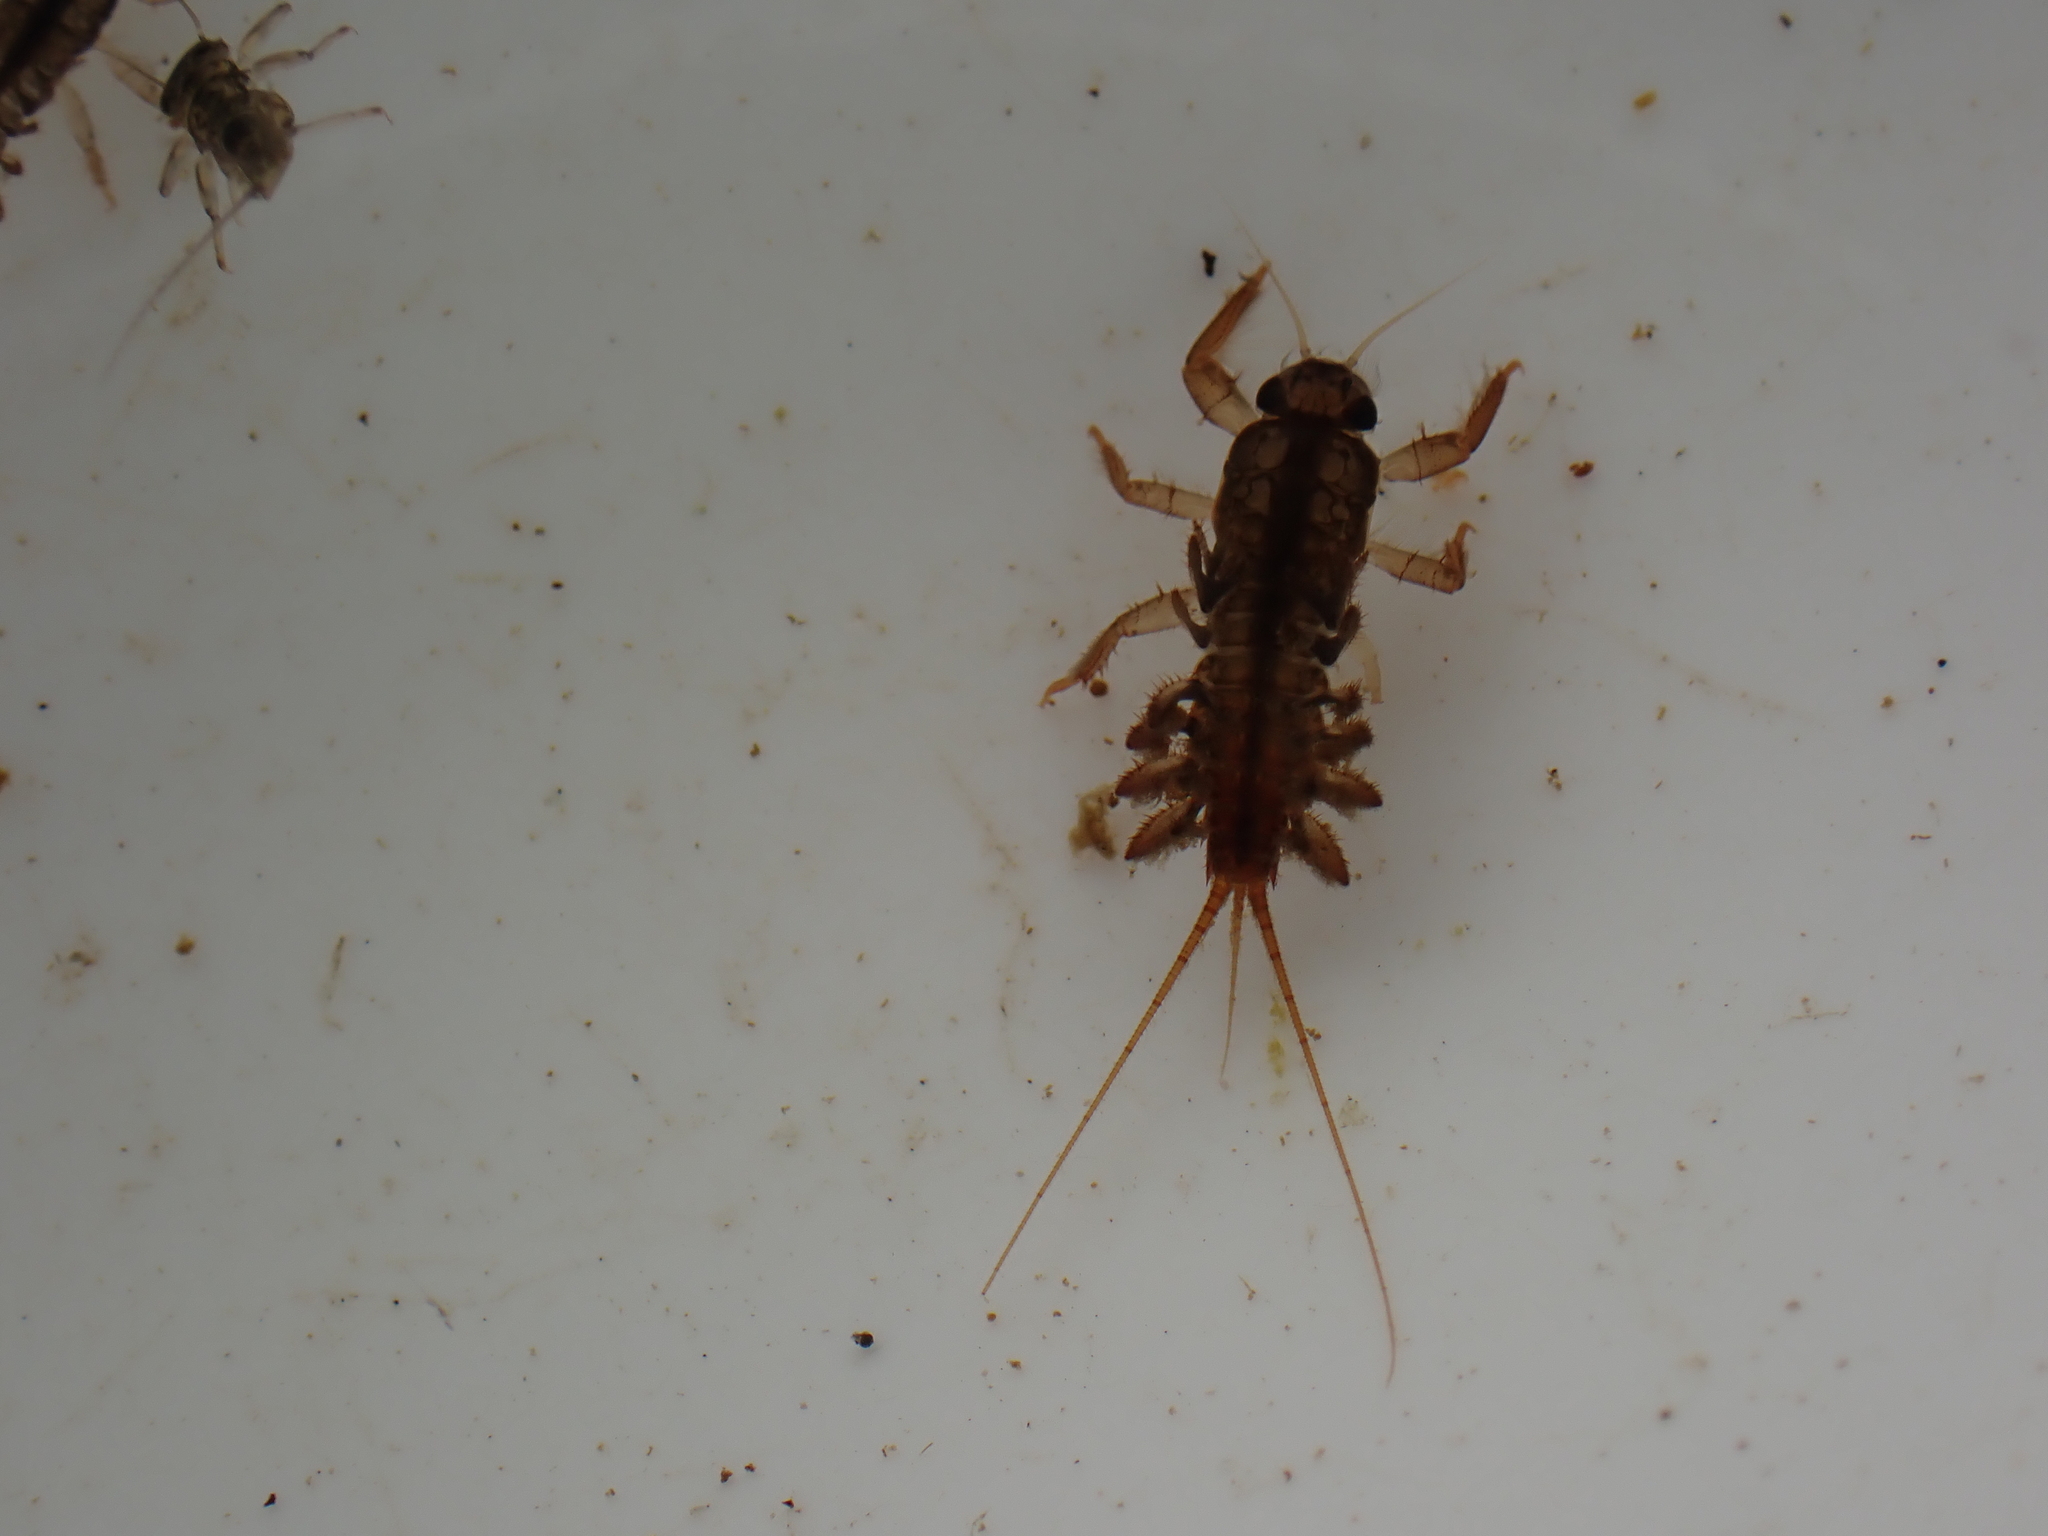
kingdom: Animalia
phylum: Arthropoda
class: Insecta
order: Ephemeroptera
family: Coloburiscidae
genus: Coloburiscus
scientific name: Coloburiscus humeralis
